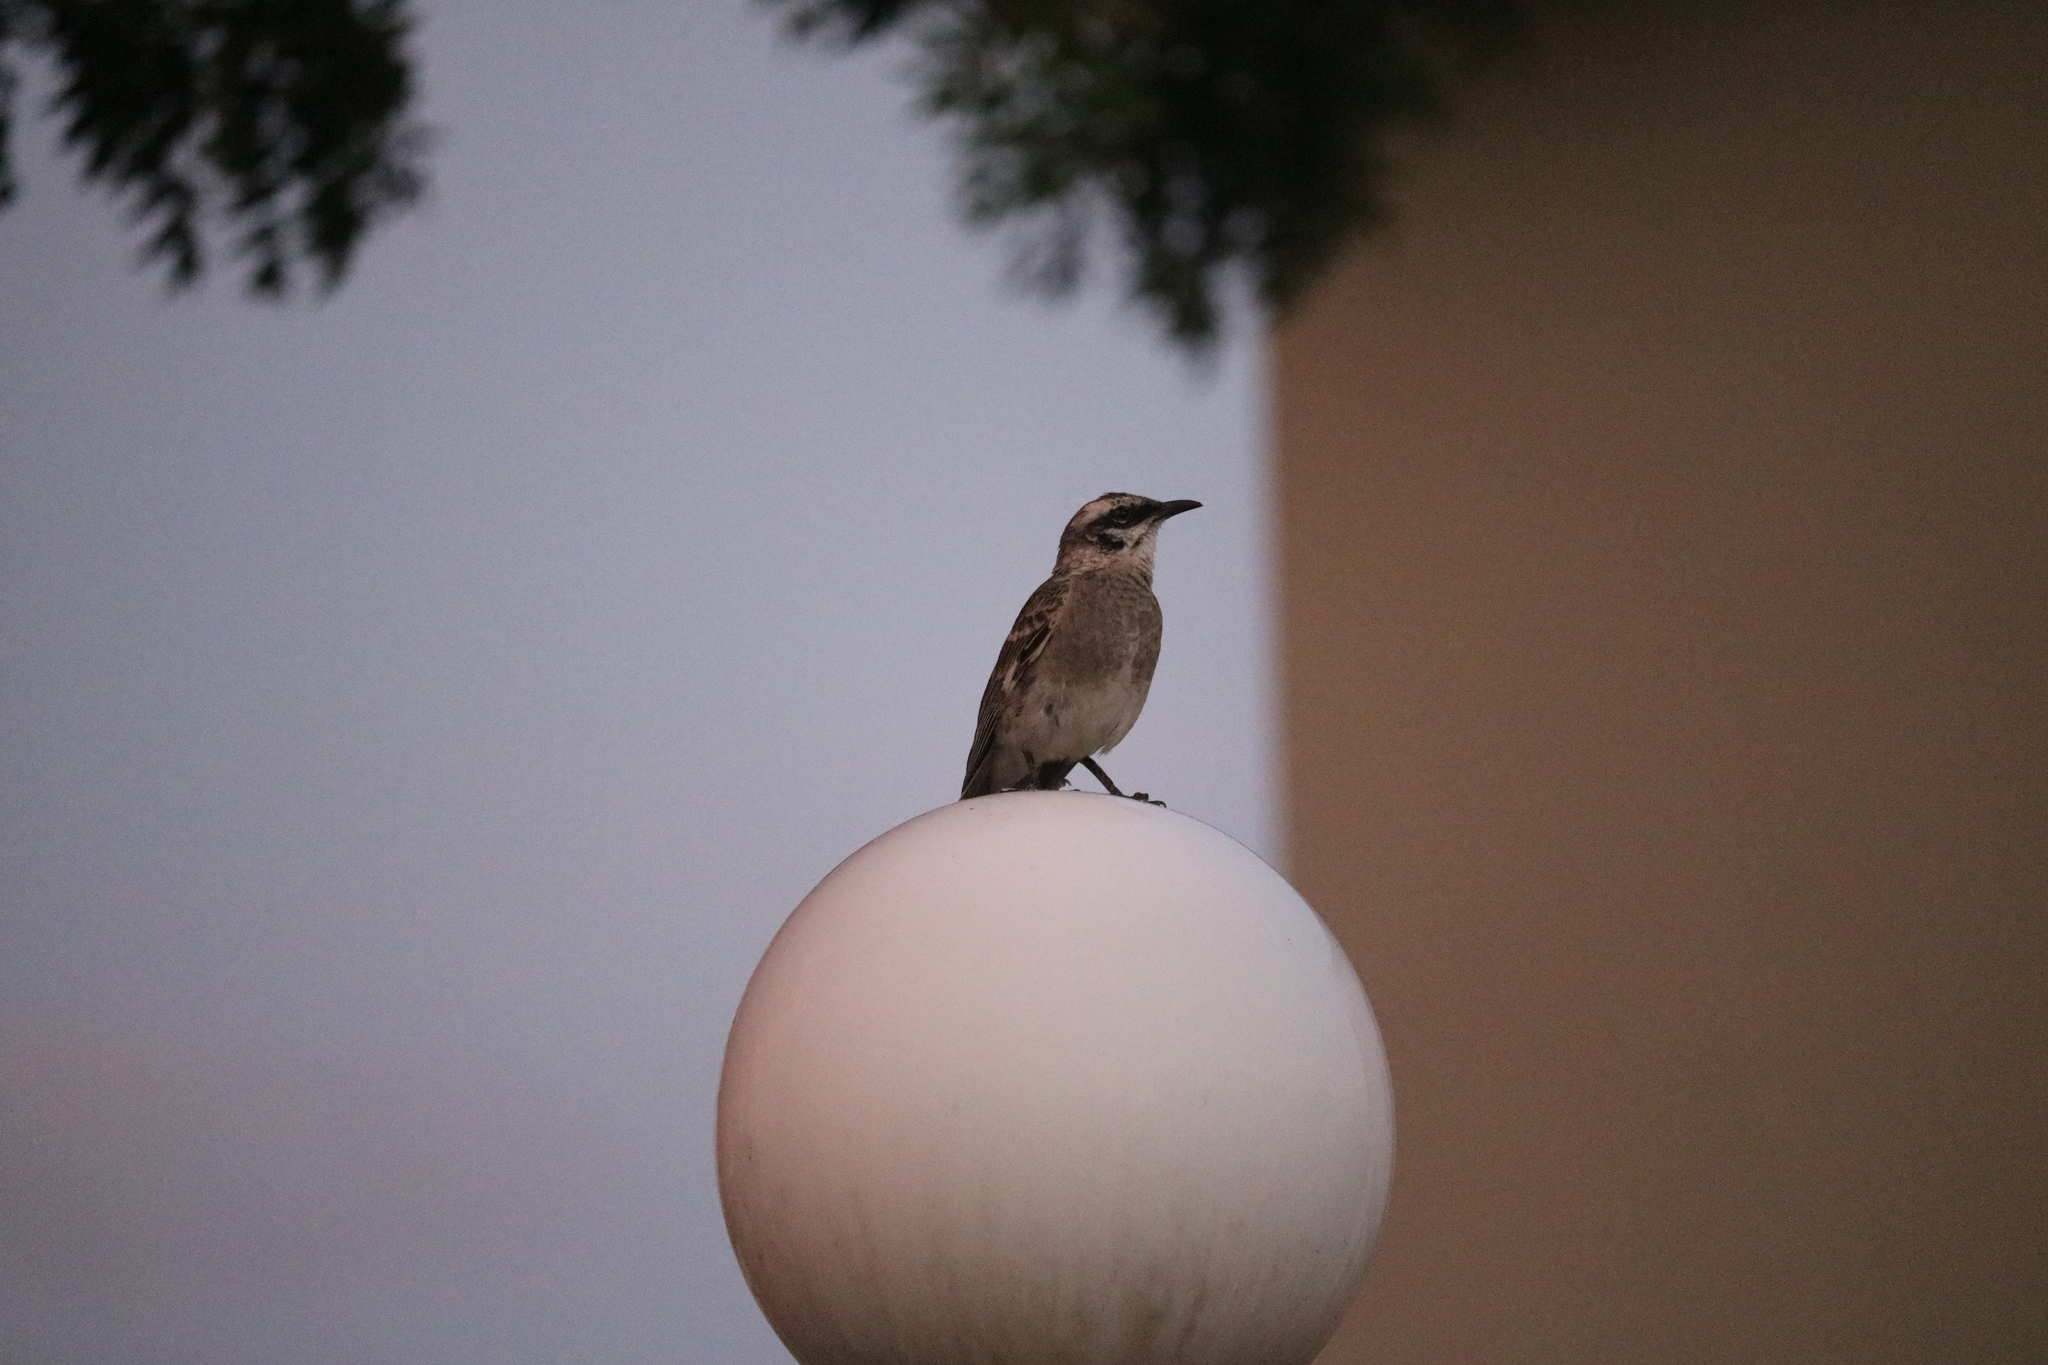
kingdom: Animalia
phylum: Chordata
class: Aves
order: Passeriformes
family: Mimidae
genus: Mimus
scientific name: Mimus longicaudatus
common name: Long-tailed mockingbird
